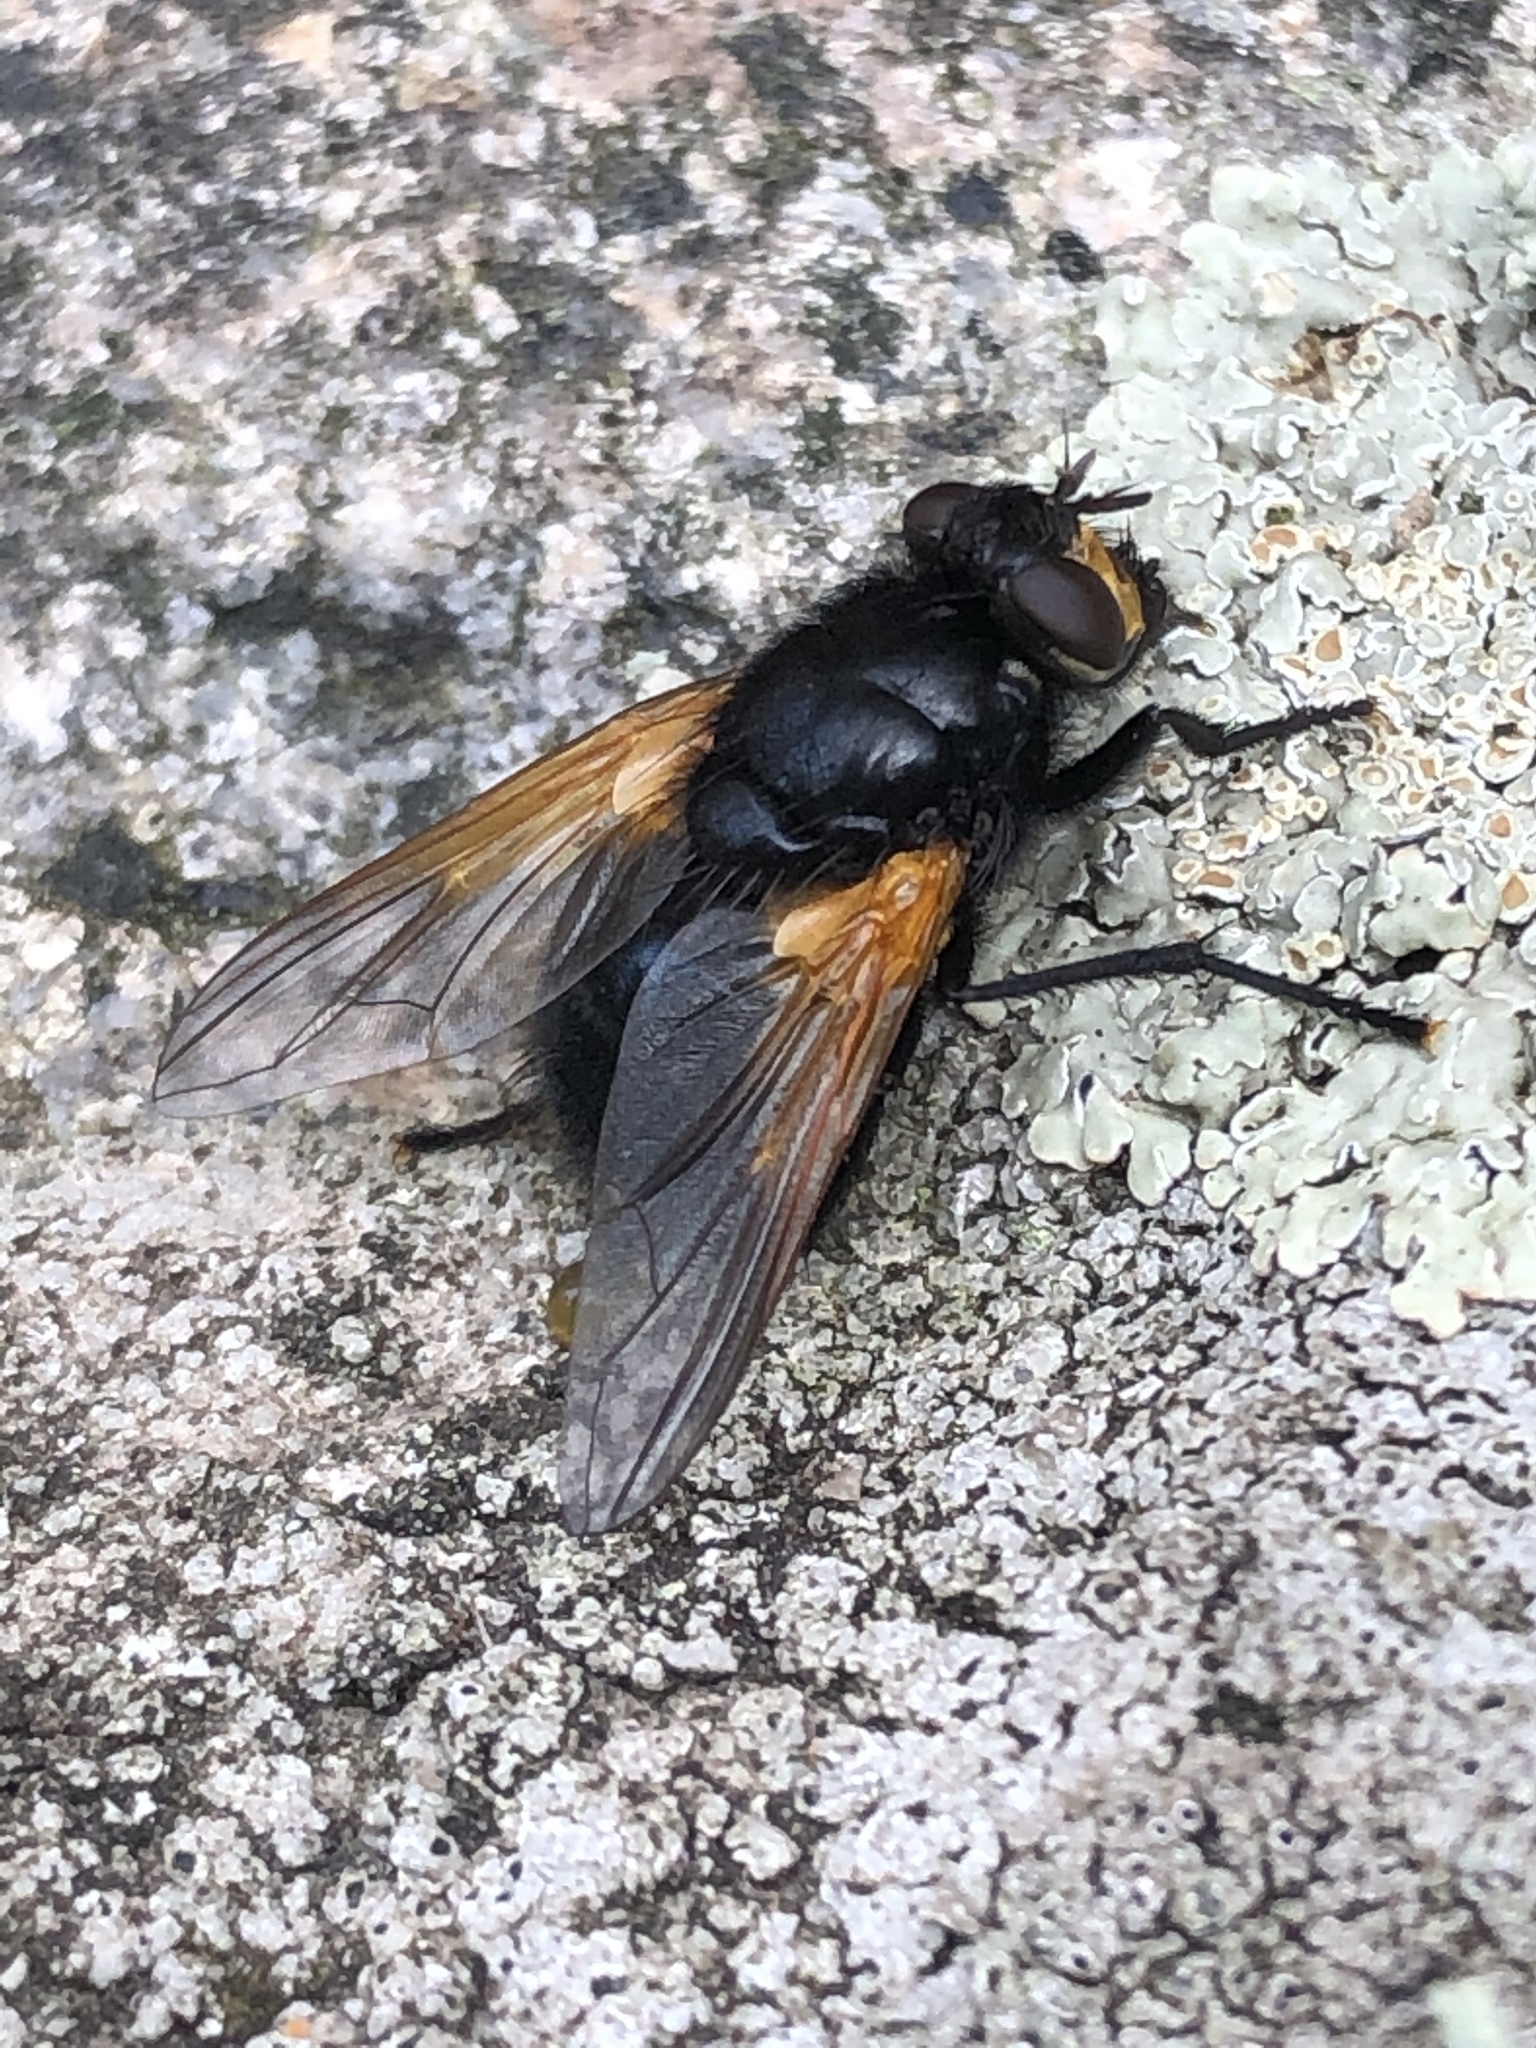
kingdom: Animalia
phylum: Arthropoda
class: Insecta
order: Diptera
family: Muscidae
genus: Mesembrina
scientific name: Mesembrina meridiana
